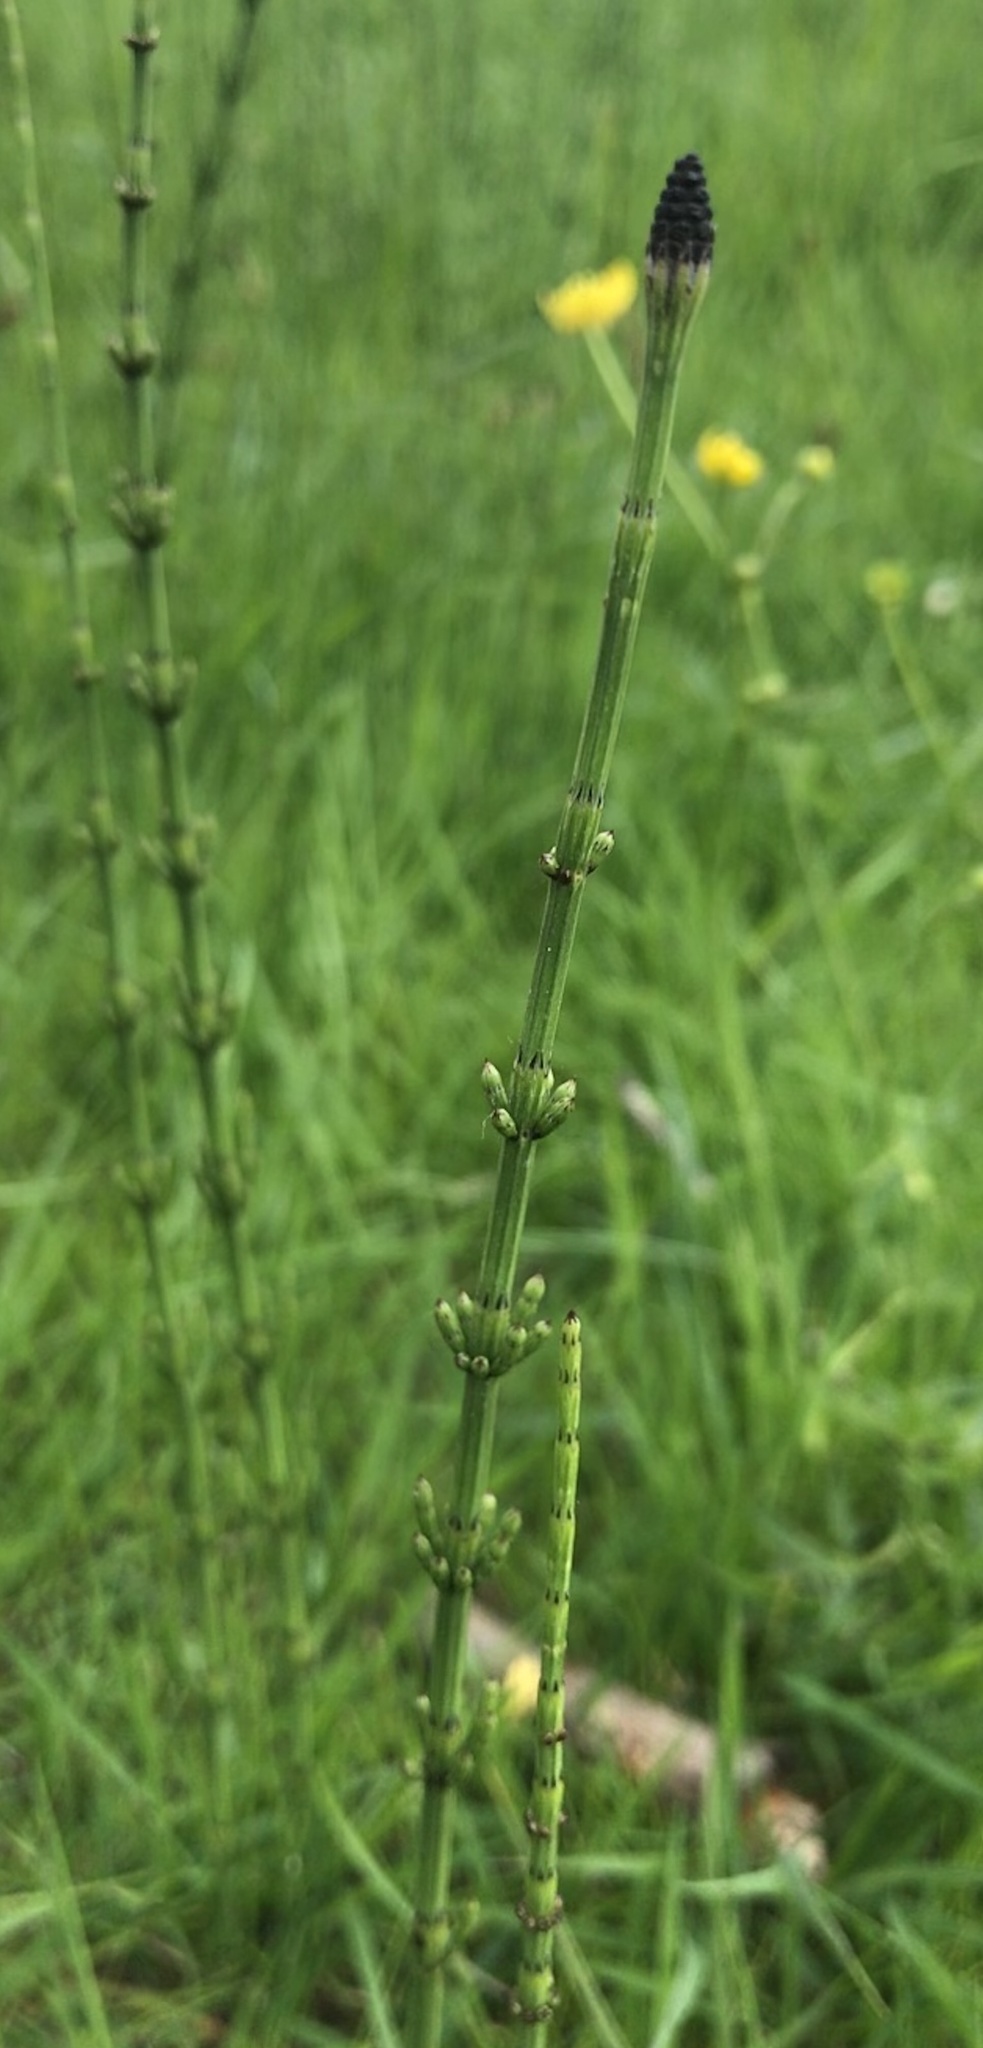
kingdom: Plantae
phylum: Tracheophyta
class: Polypodiopsida
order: Equisetales
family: Equisetaceae
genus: Equisetum
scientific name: Equisetum palustre
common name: Marsh horsetail
